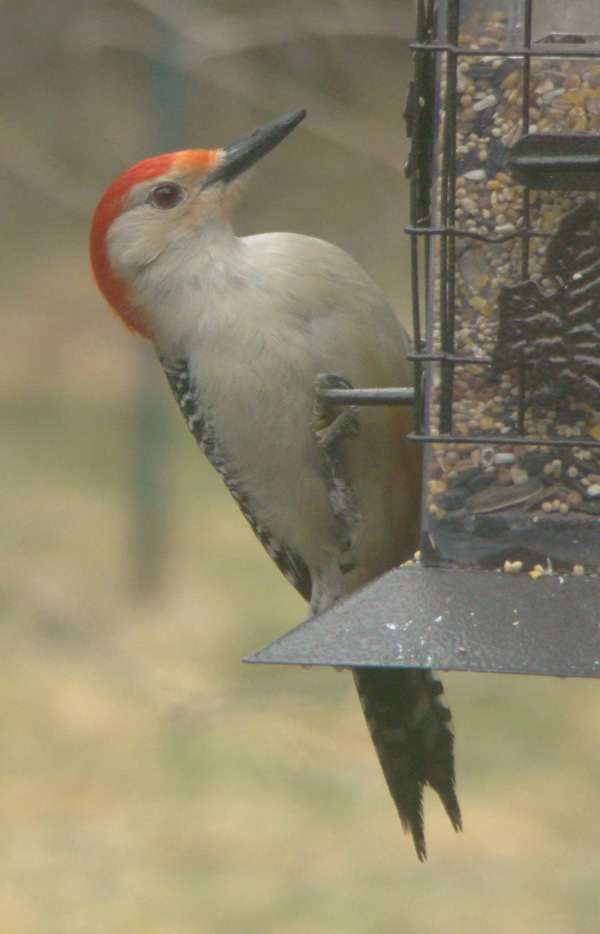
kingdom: Animalia
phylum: Chordata
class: Aves
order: Piciformes
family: Picidae
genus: Melanerpes
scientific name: Melanerpes carolinus
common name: Red-bellied woodpecker
